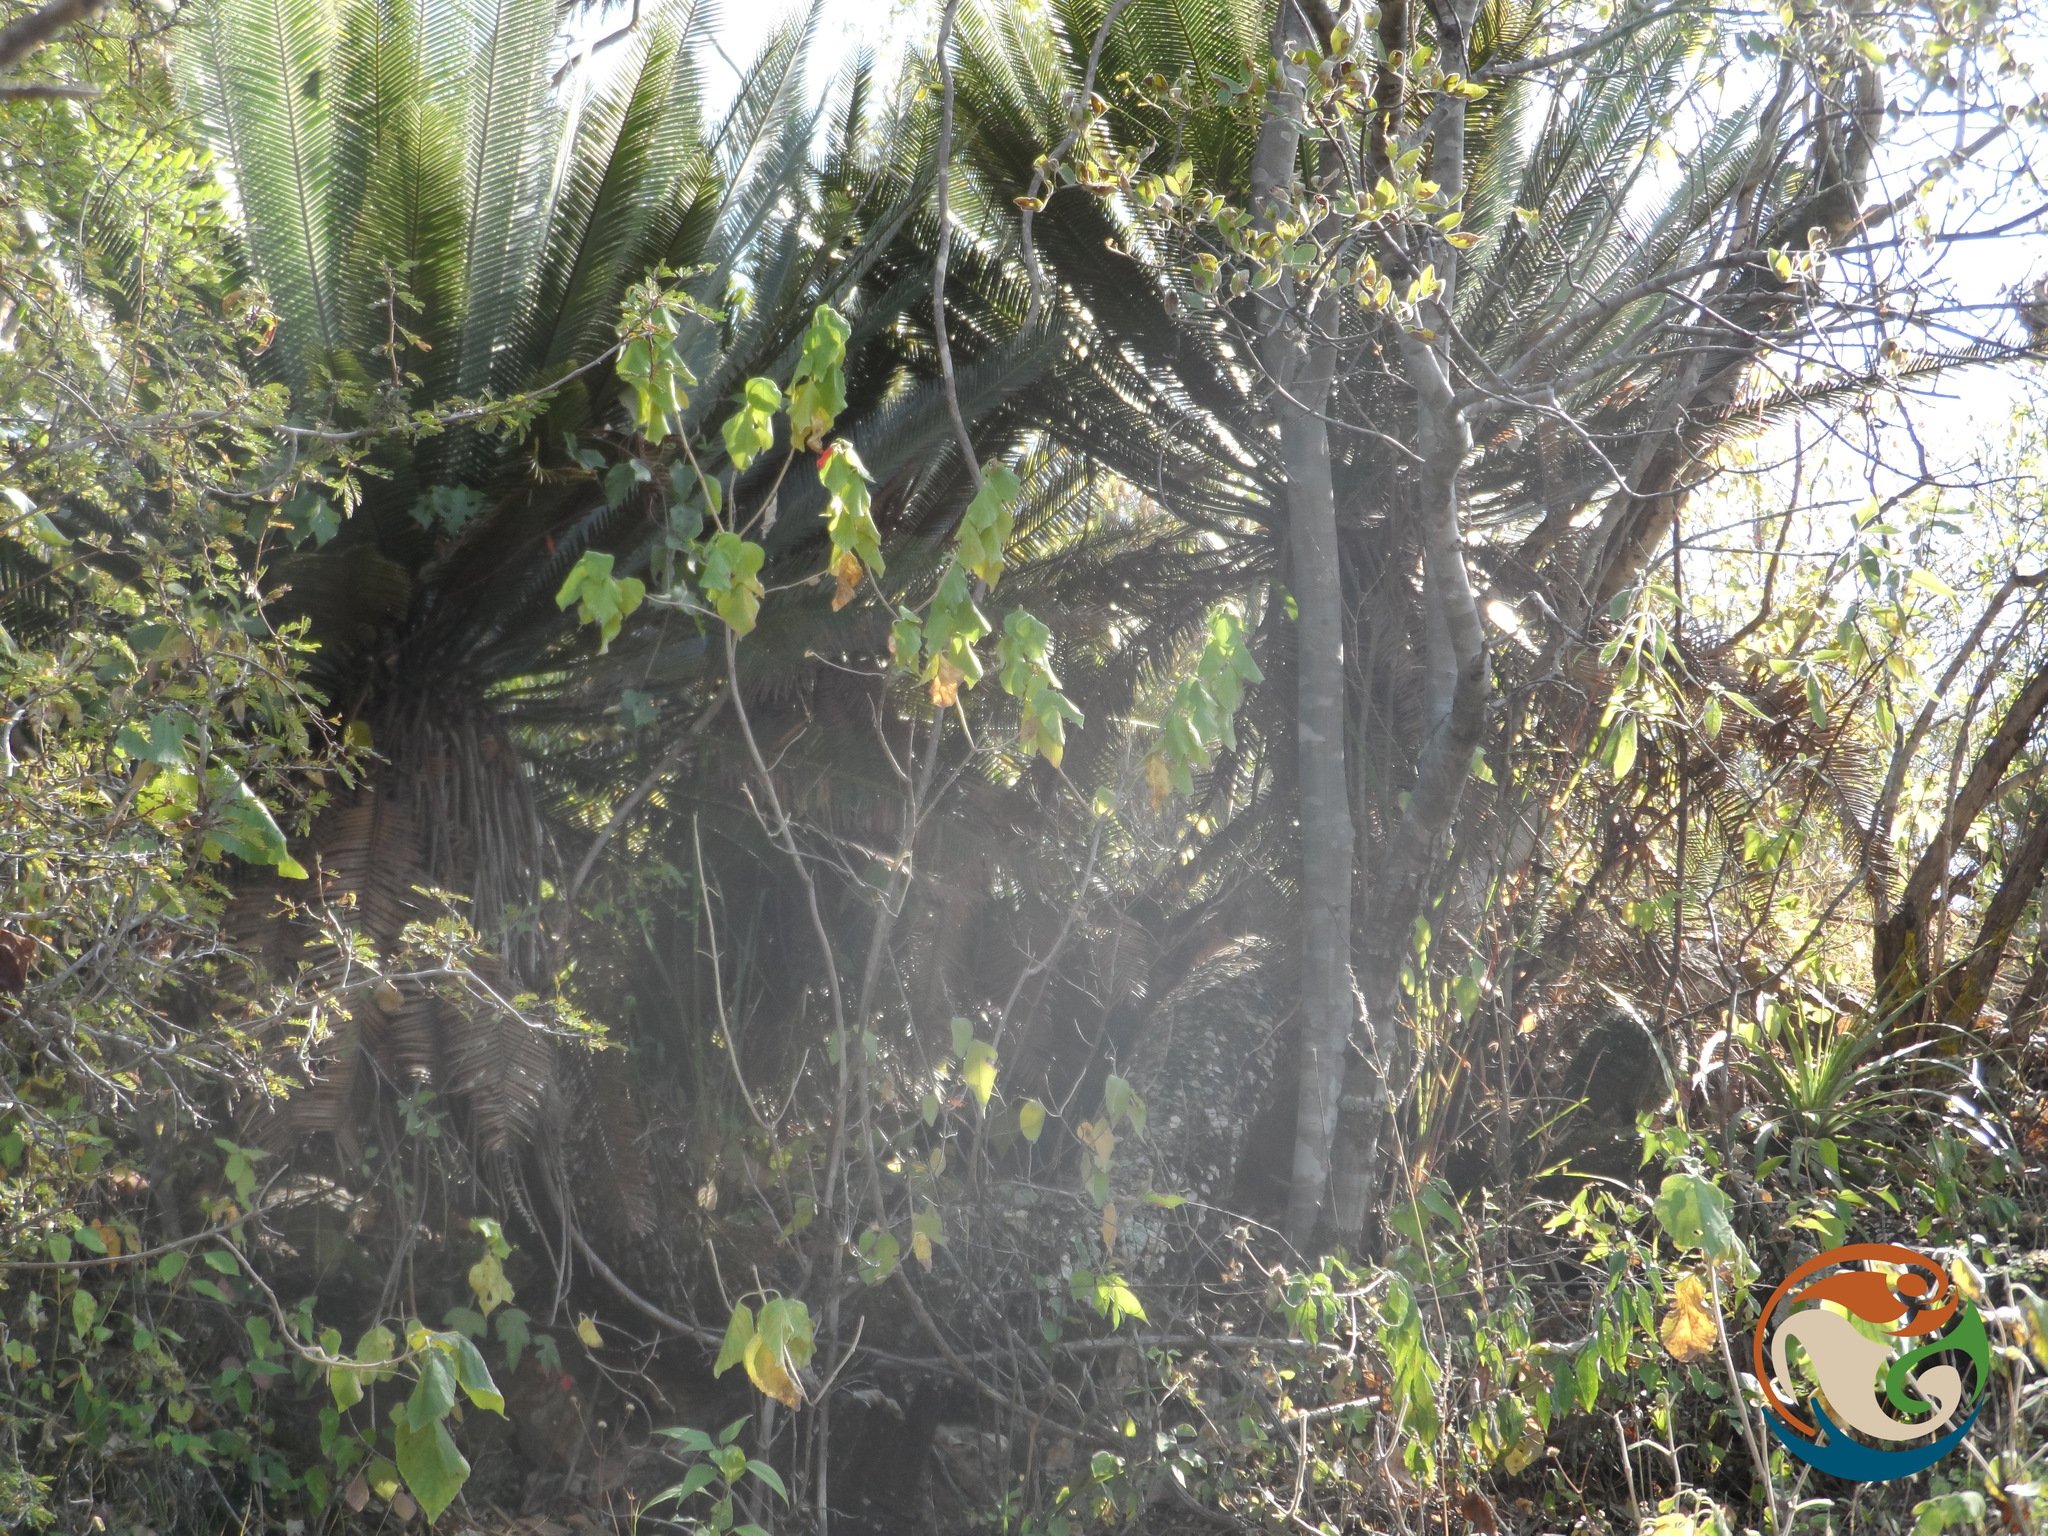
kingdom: Plantae
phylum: Tracheophyta
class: Cycadopsida
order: Cycadales
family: Zamiaceae
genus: Dioon
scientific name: Dioon planifolium
